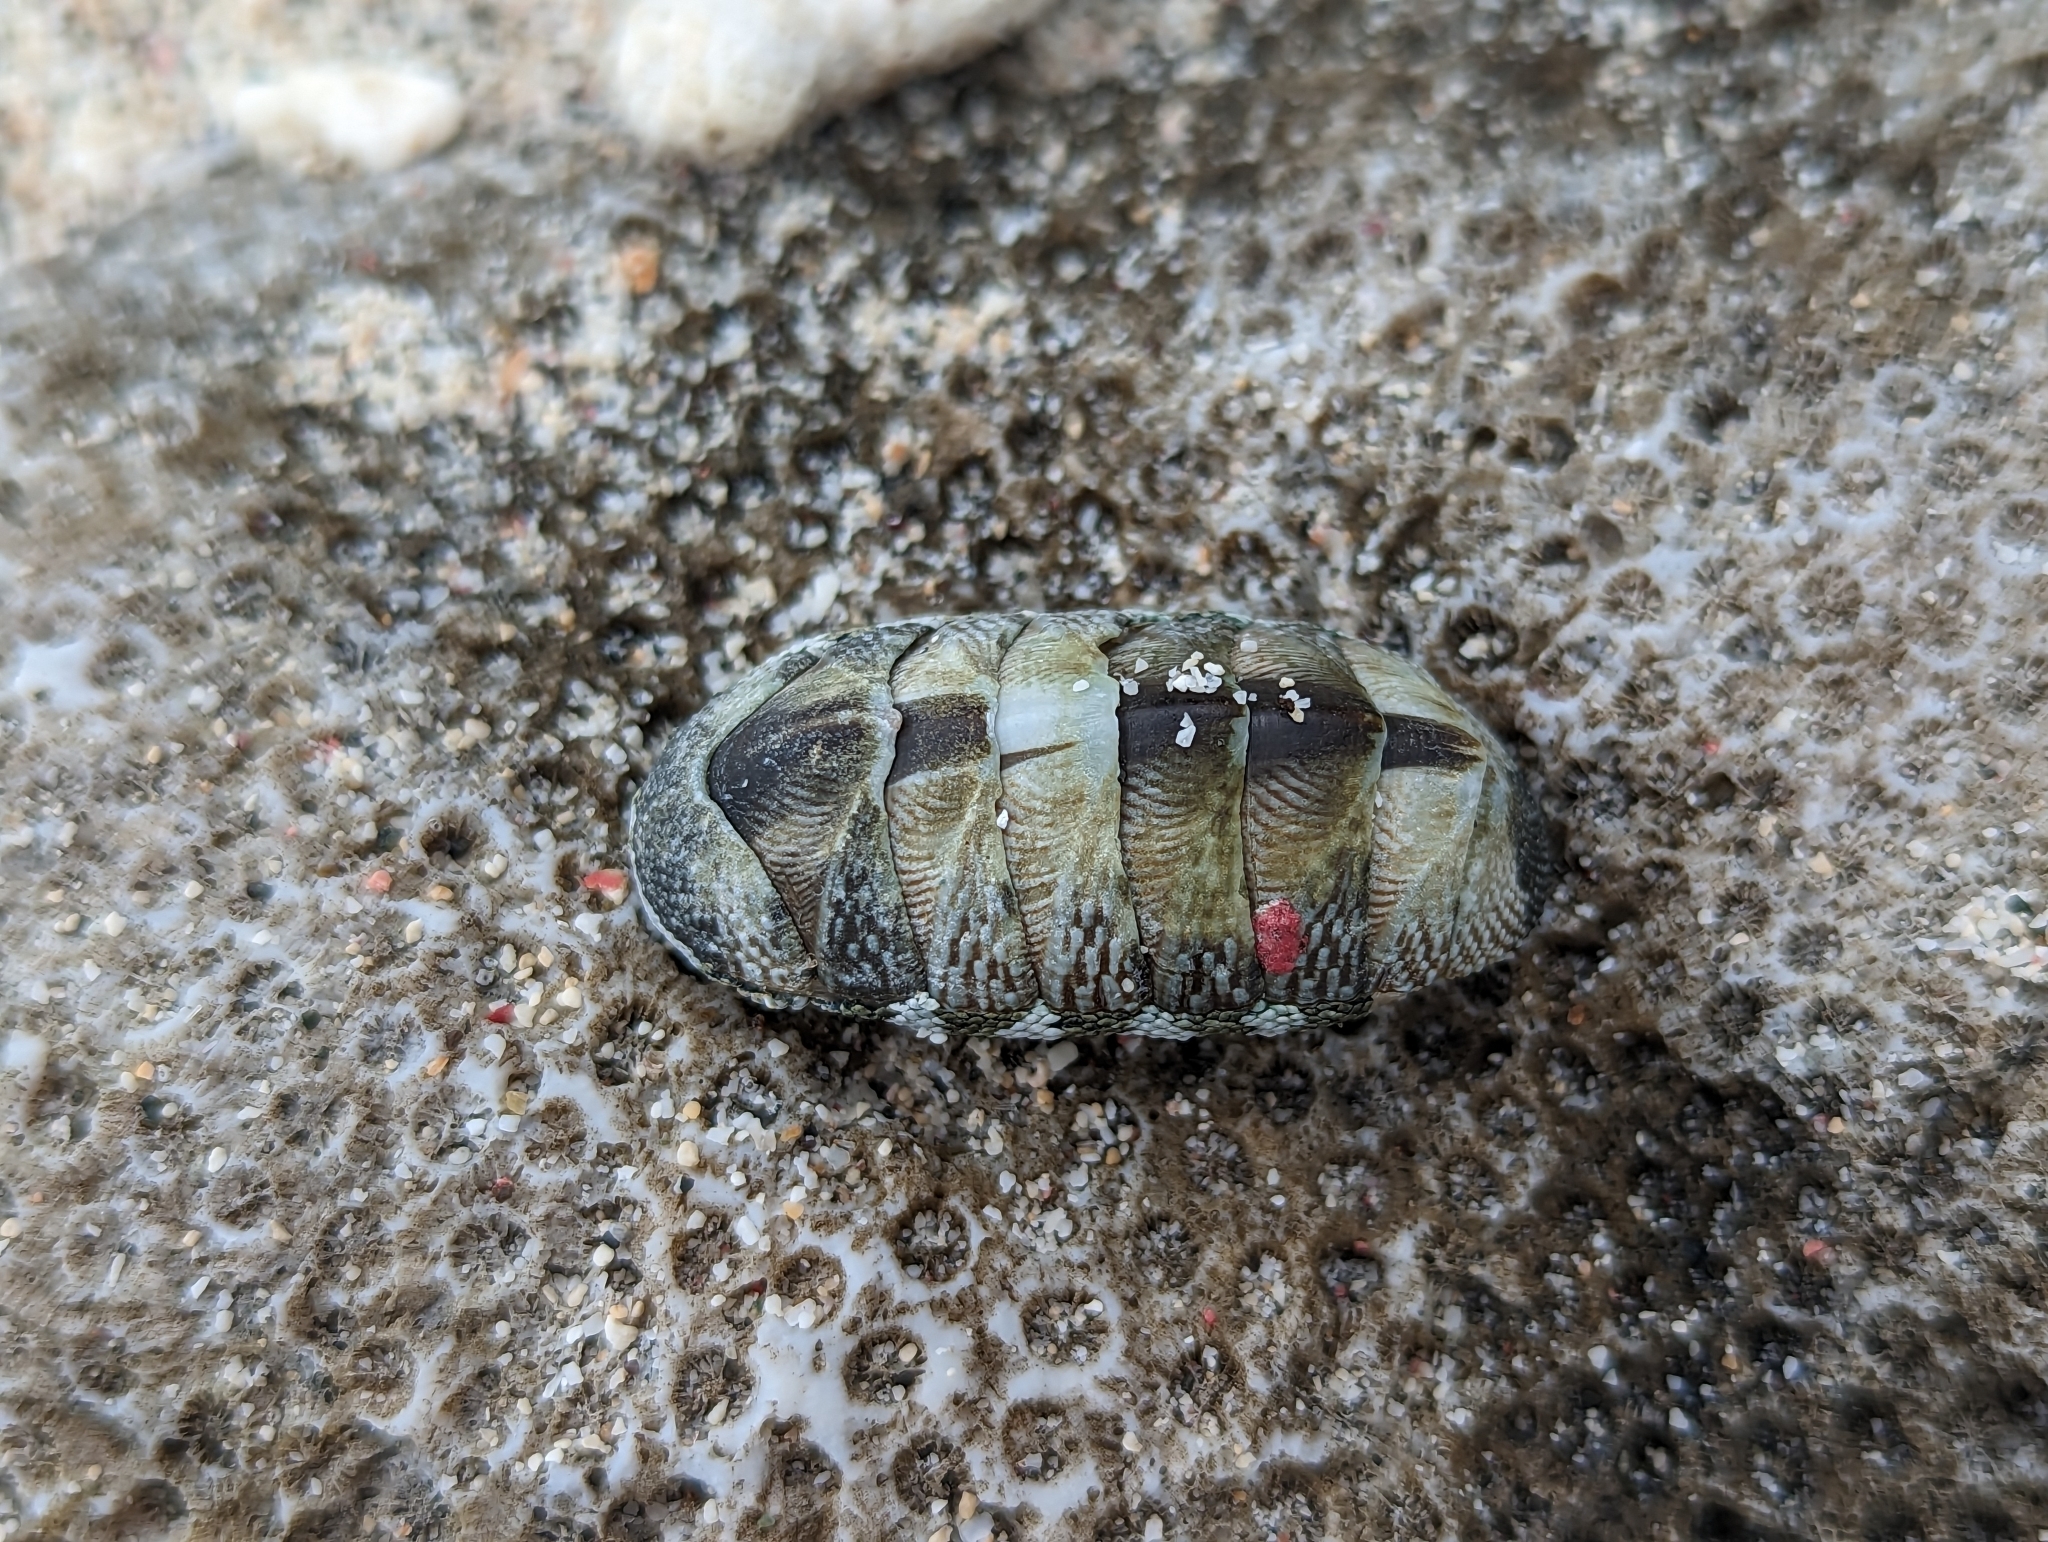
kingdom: Animalia
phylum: Mollusca
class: Polyplacophora
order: Chitonida
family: Chitonidae
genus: Chiton
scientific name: Chiton tuberculatus
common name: West indian green chiton
